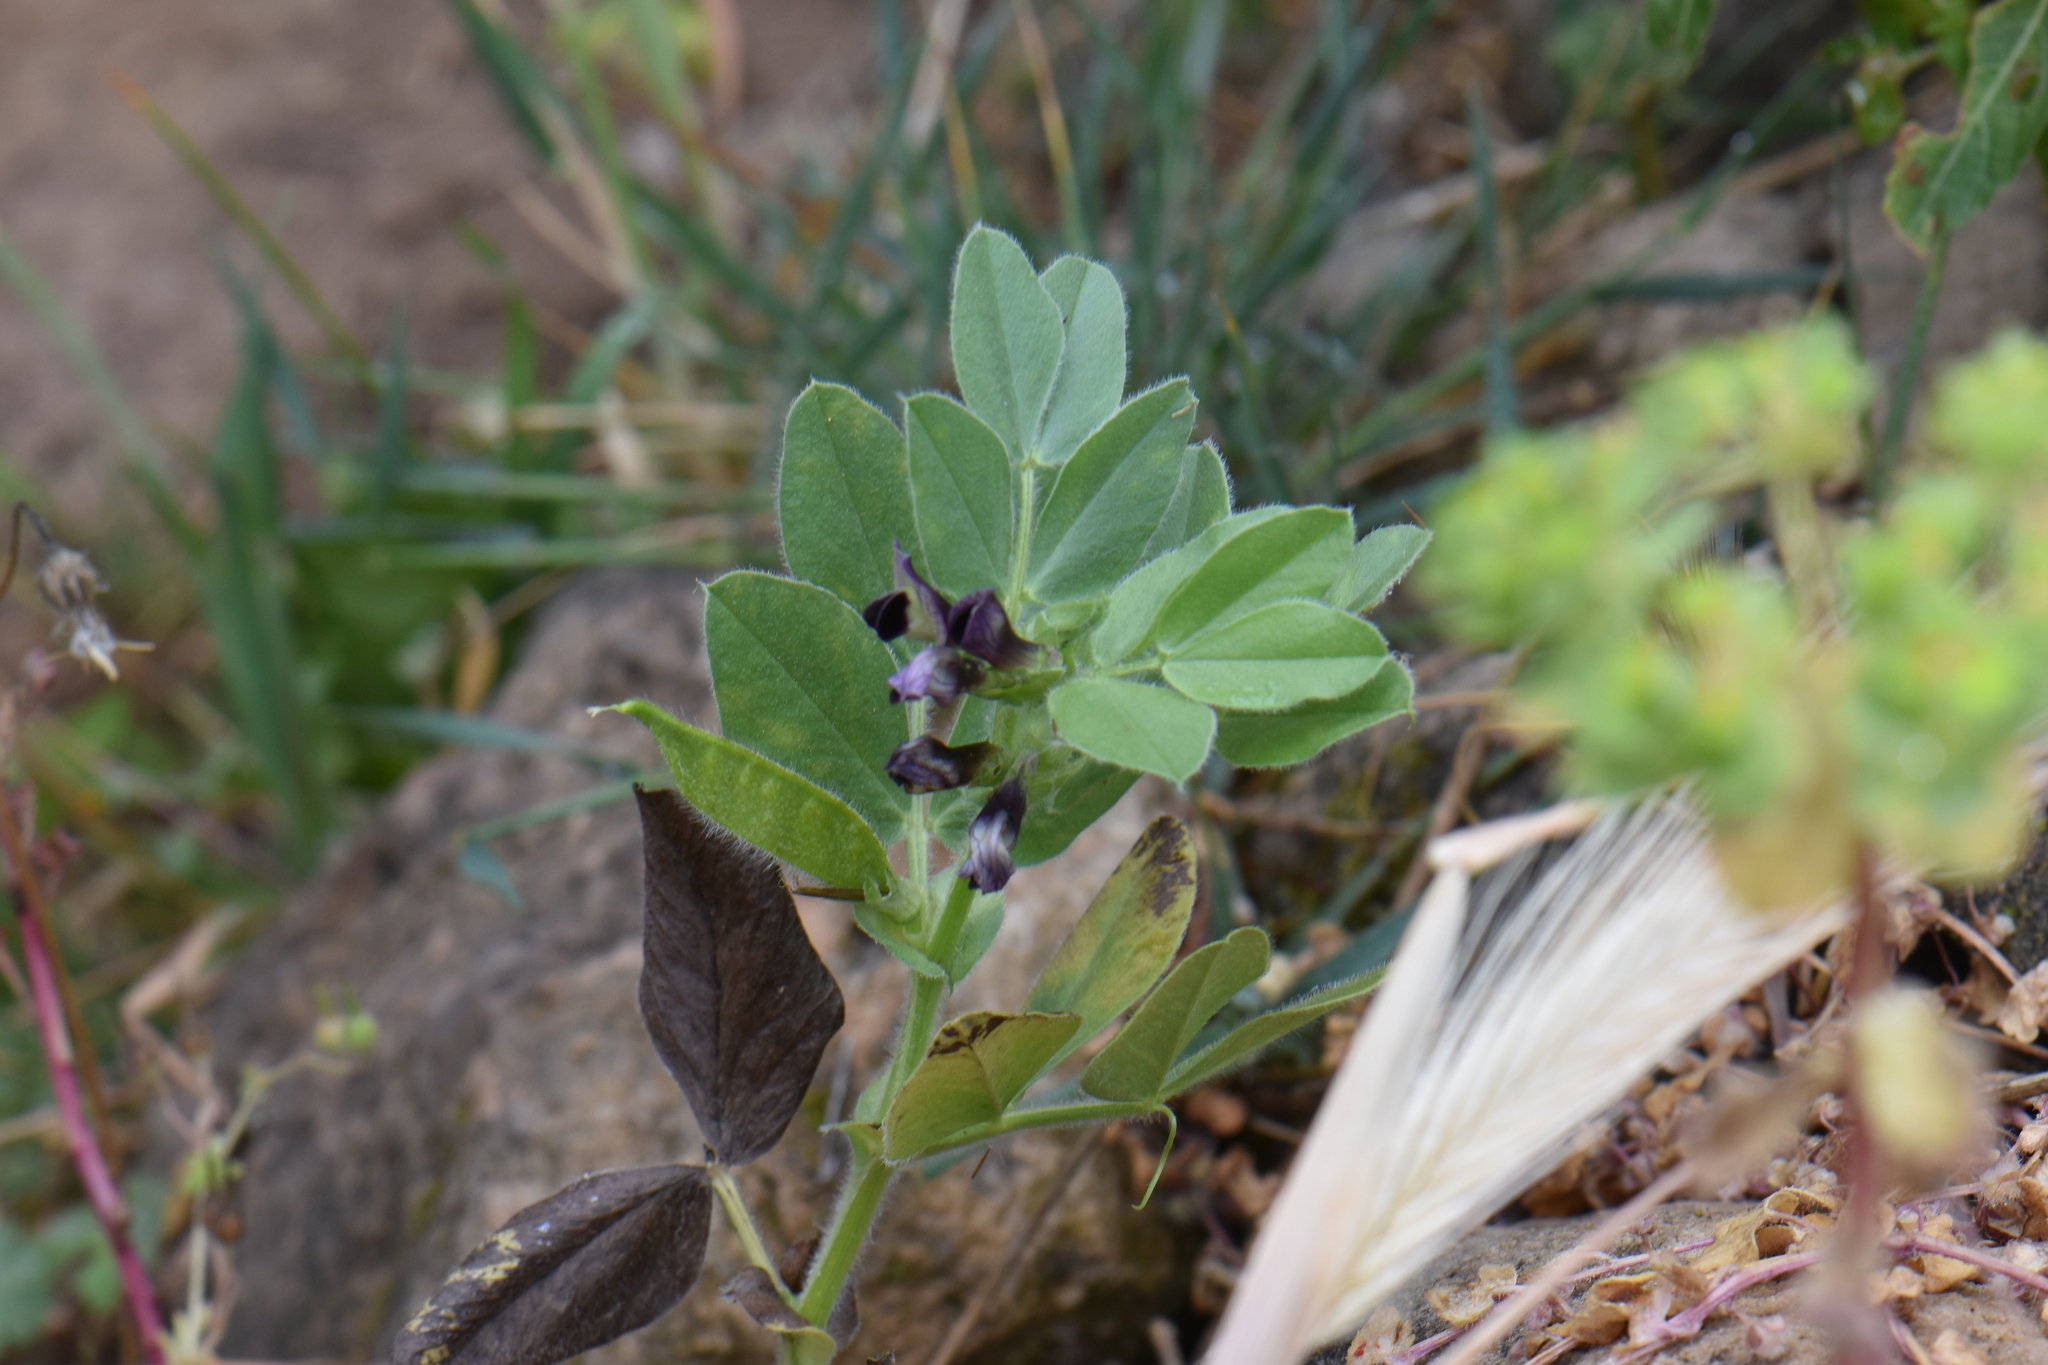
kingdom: Plantae
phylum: Tracheophyta
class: Magnoliopsida
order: Fabales
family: Fabaceae
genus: Vicia
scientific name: Vicia johannis
